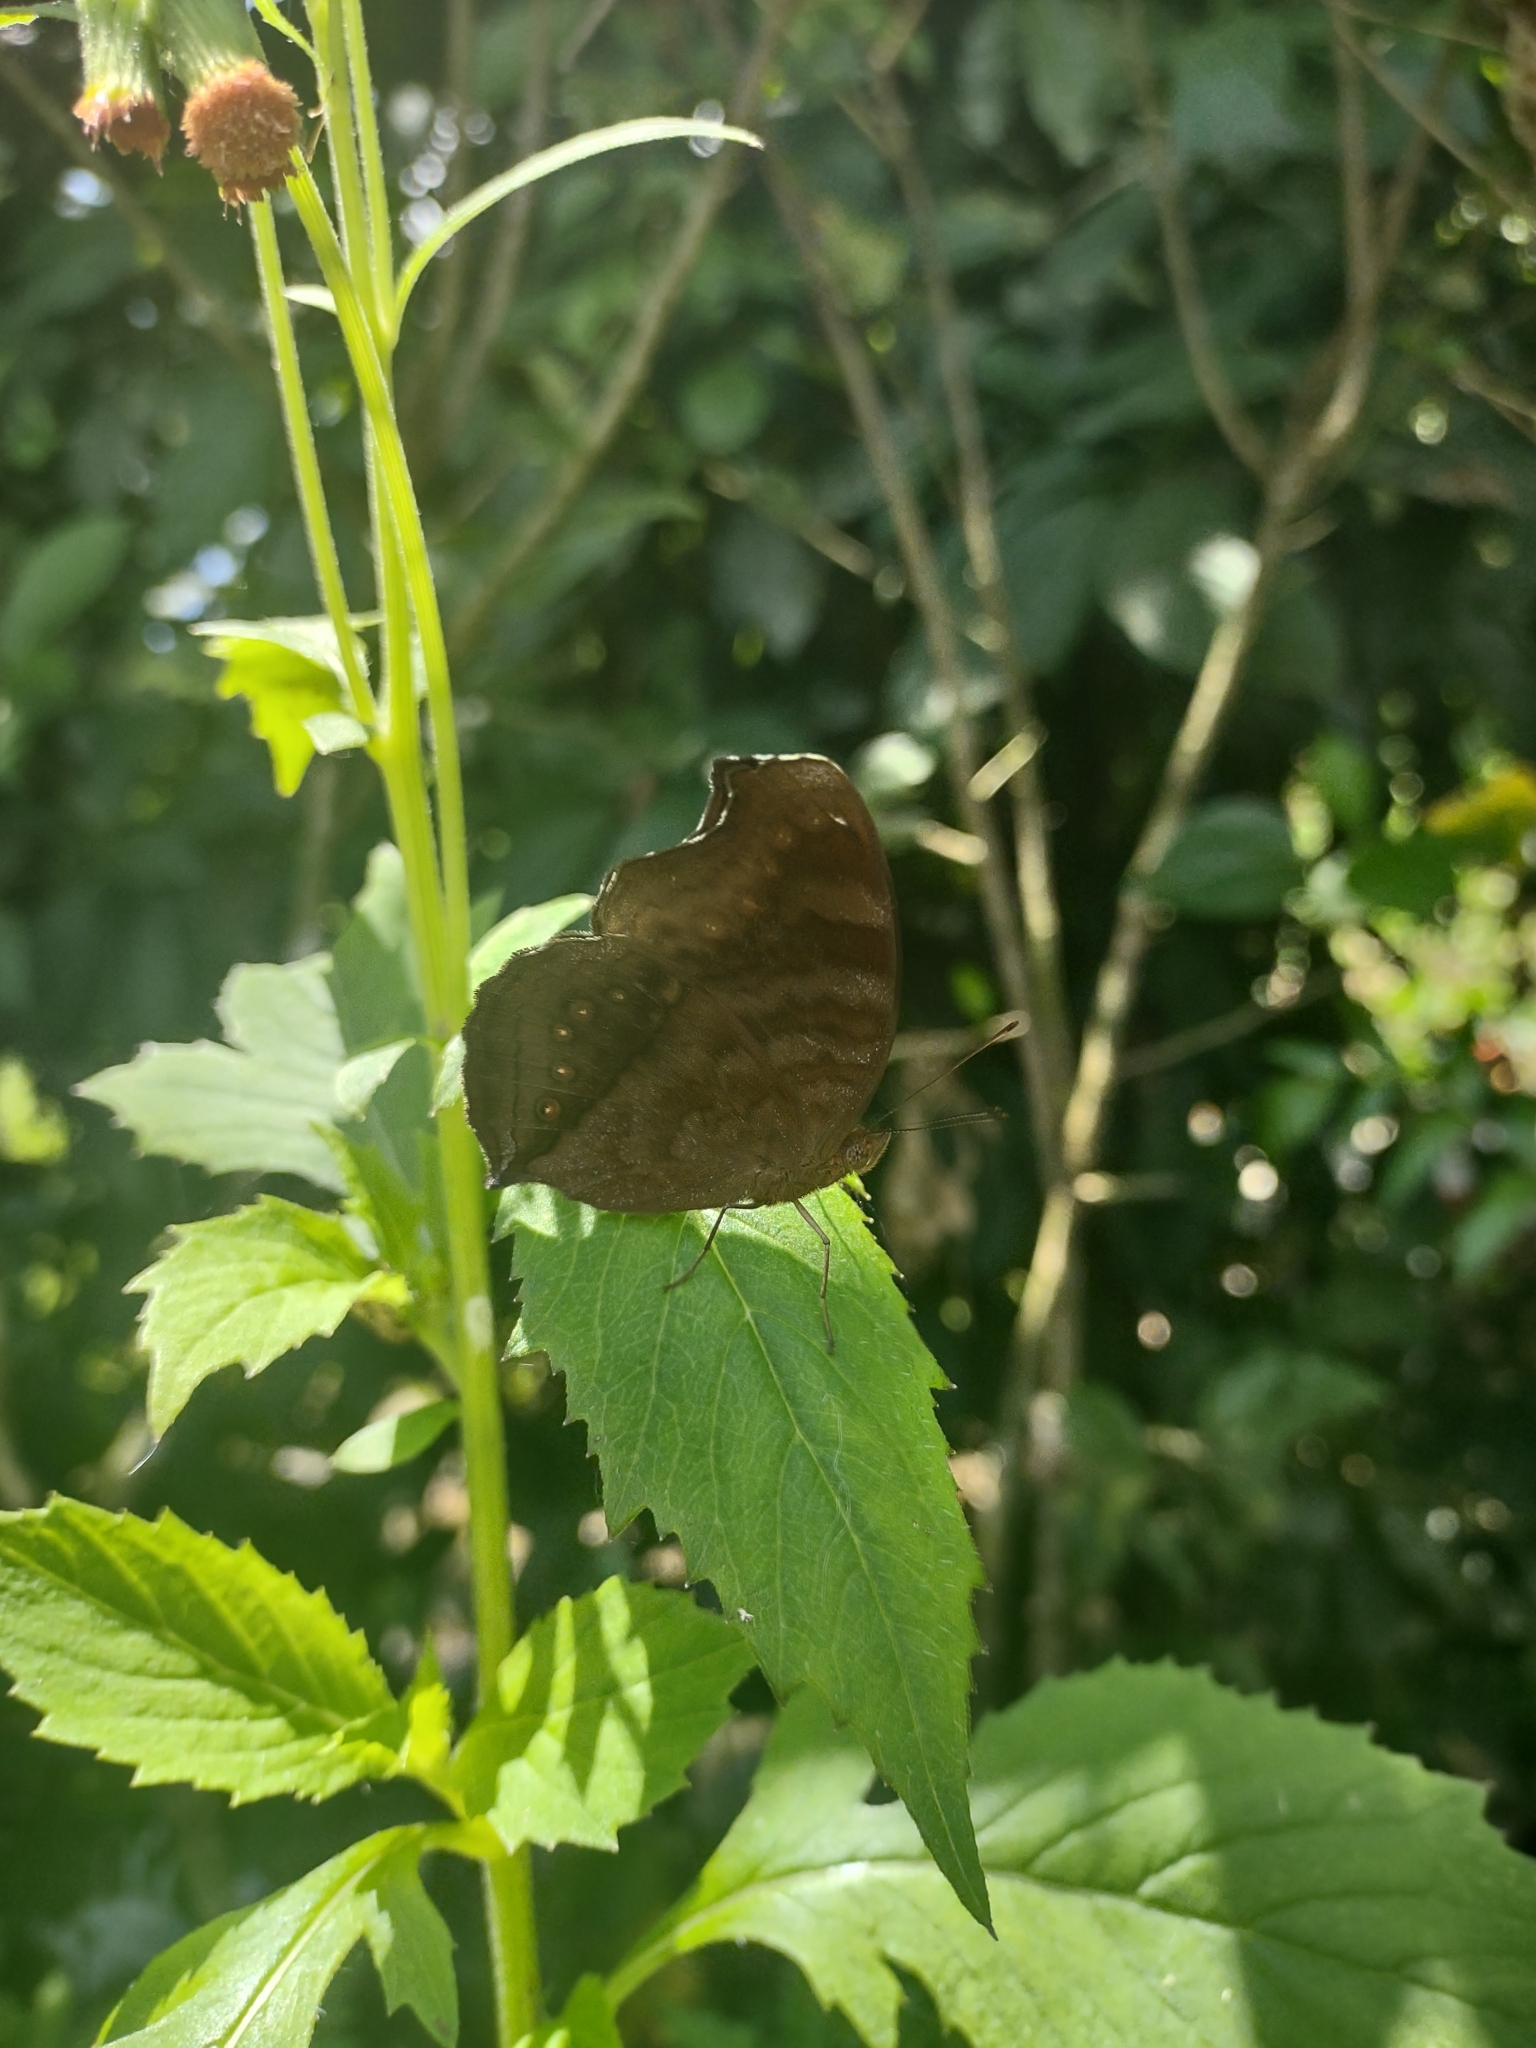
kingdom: Animalia
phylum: Arthropoda
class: Insecta
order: Lepidoptera
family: Nymphalidae
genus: Junonia
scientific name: Junonia hedonia
